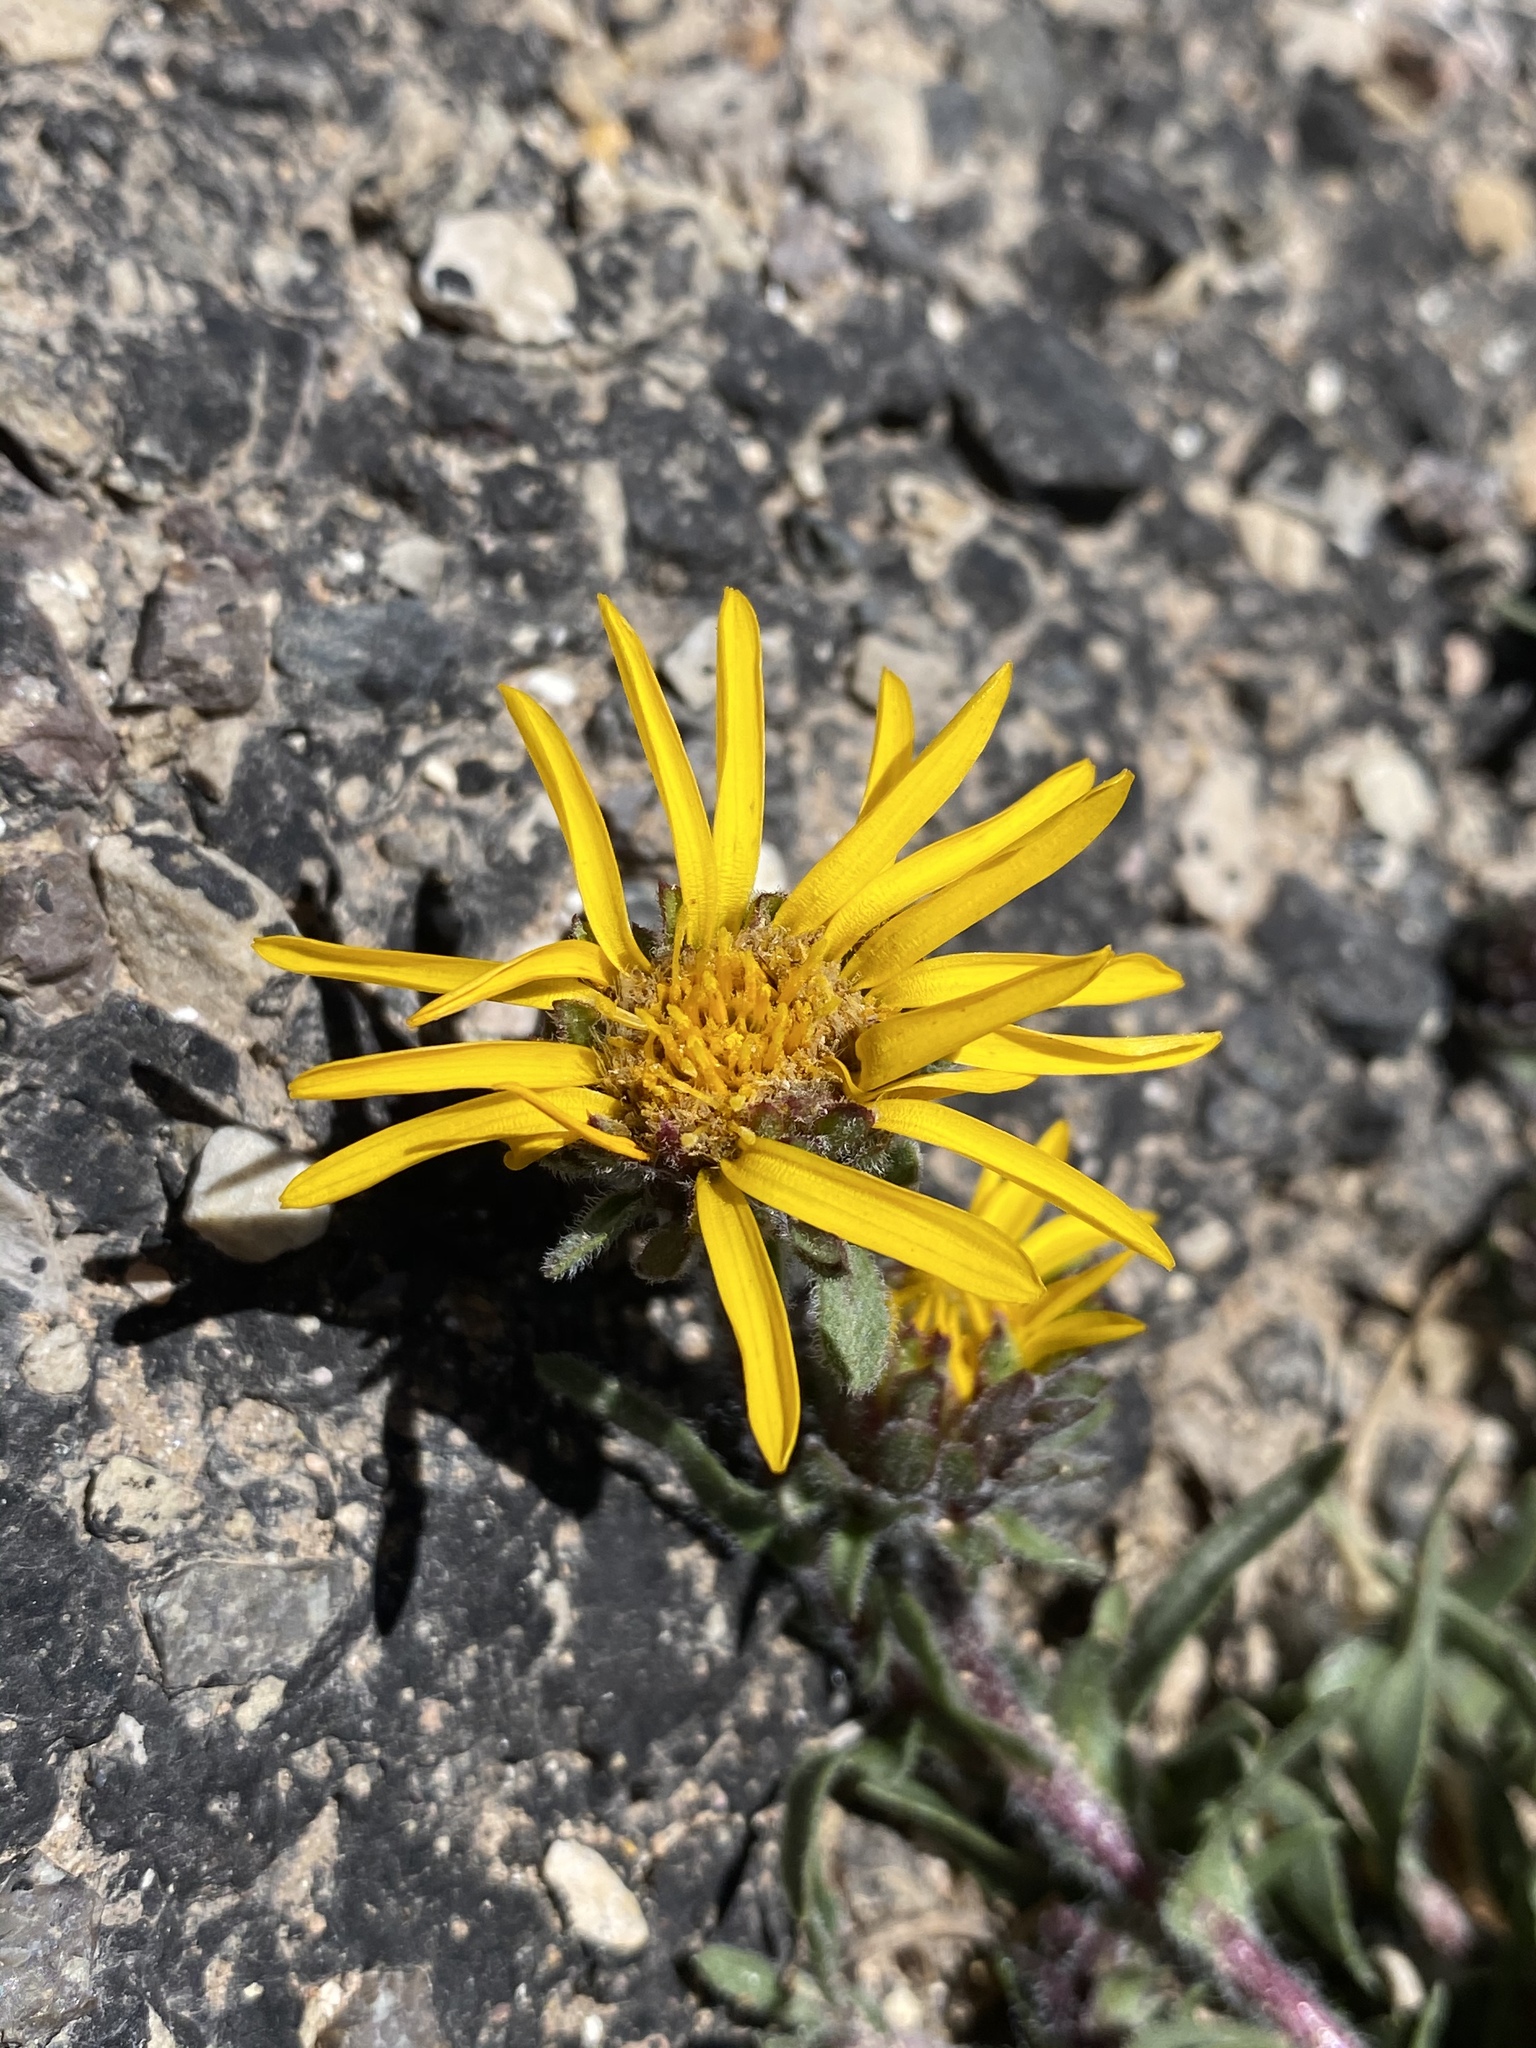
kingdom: Plantae
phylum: Tracheophyta
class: Magnoliopsida
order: Asterales
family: Asteraceae
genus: Pyrrocoma
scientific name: Pyrrocoma clementis
